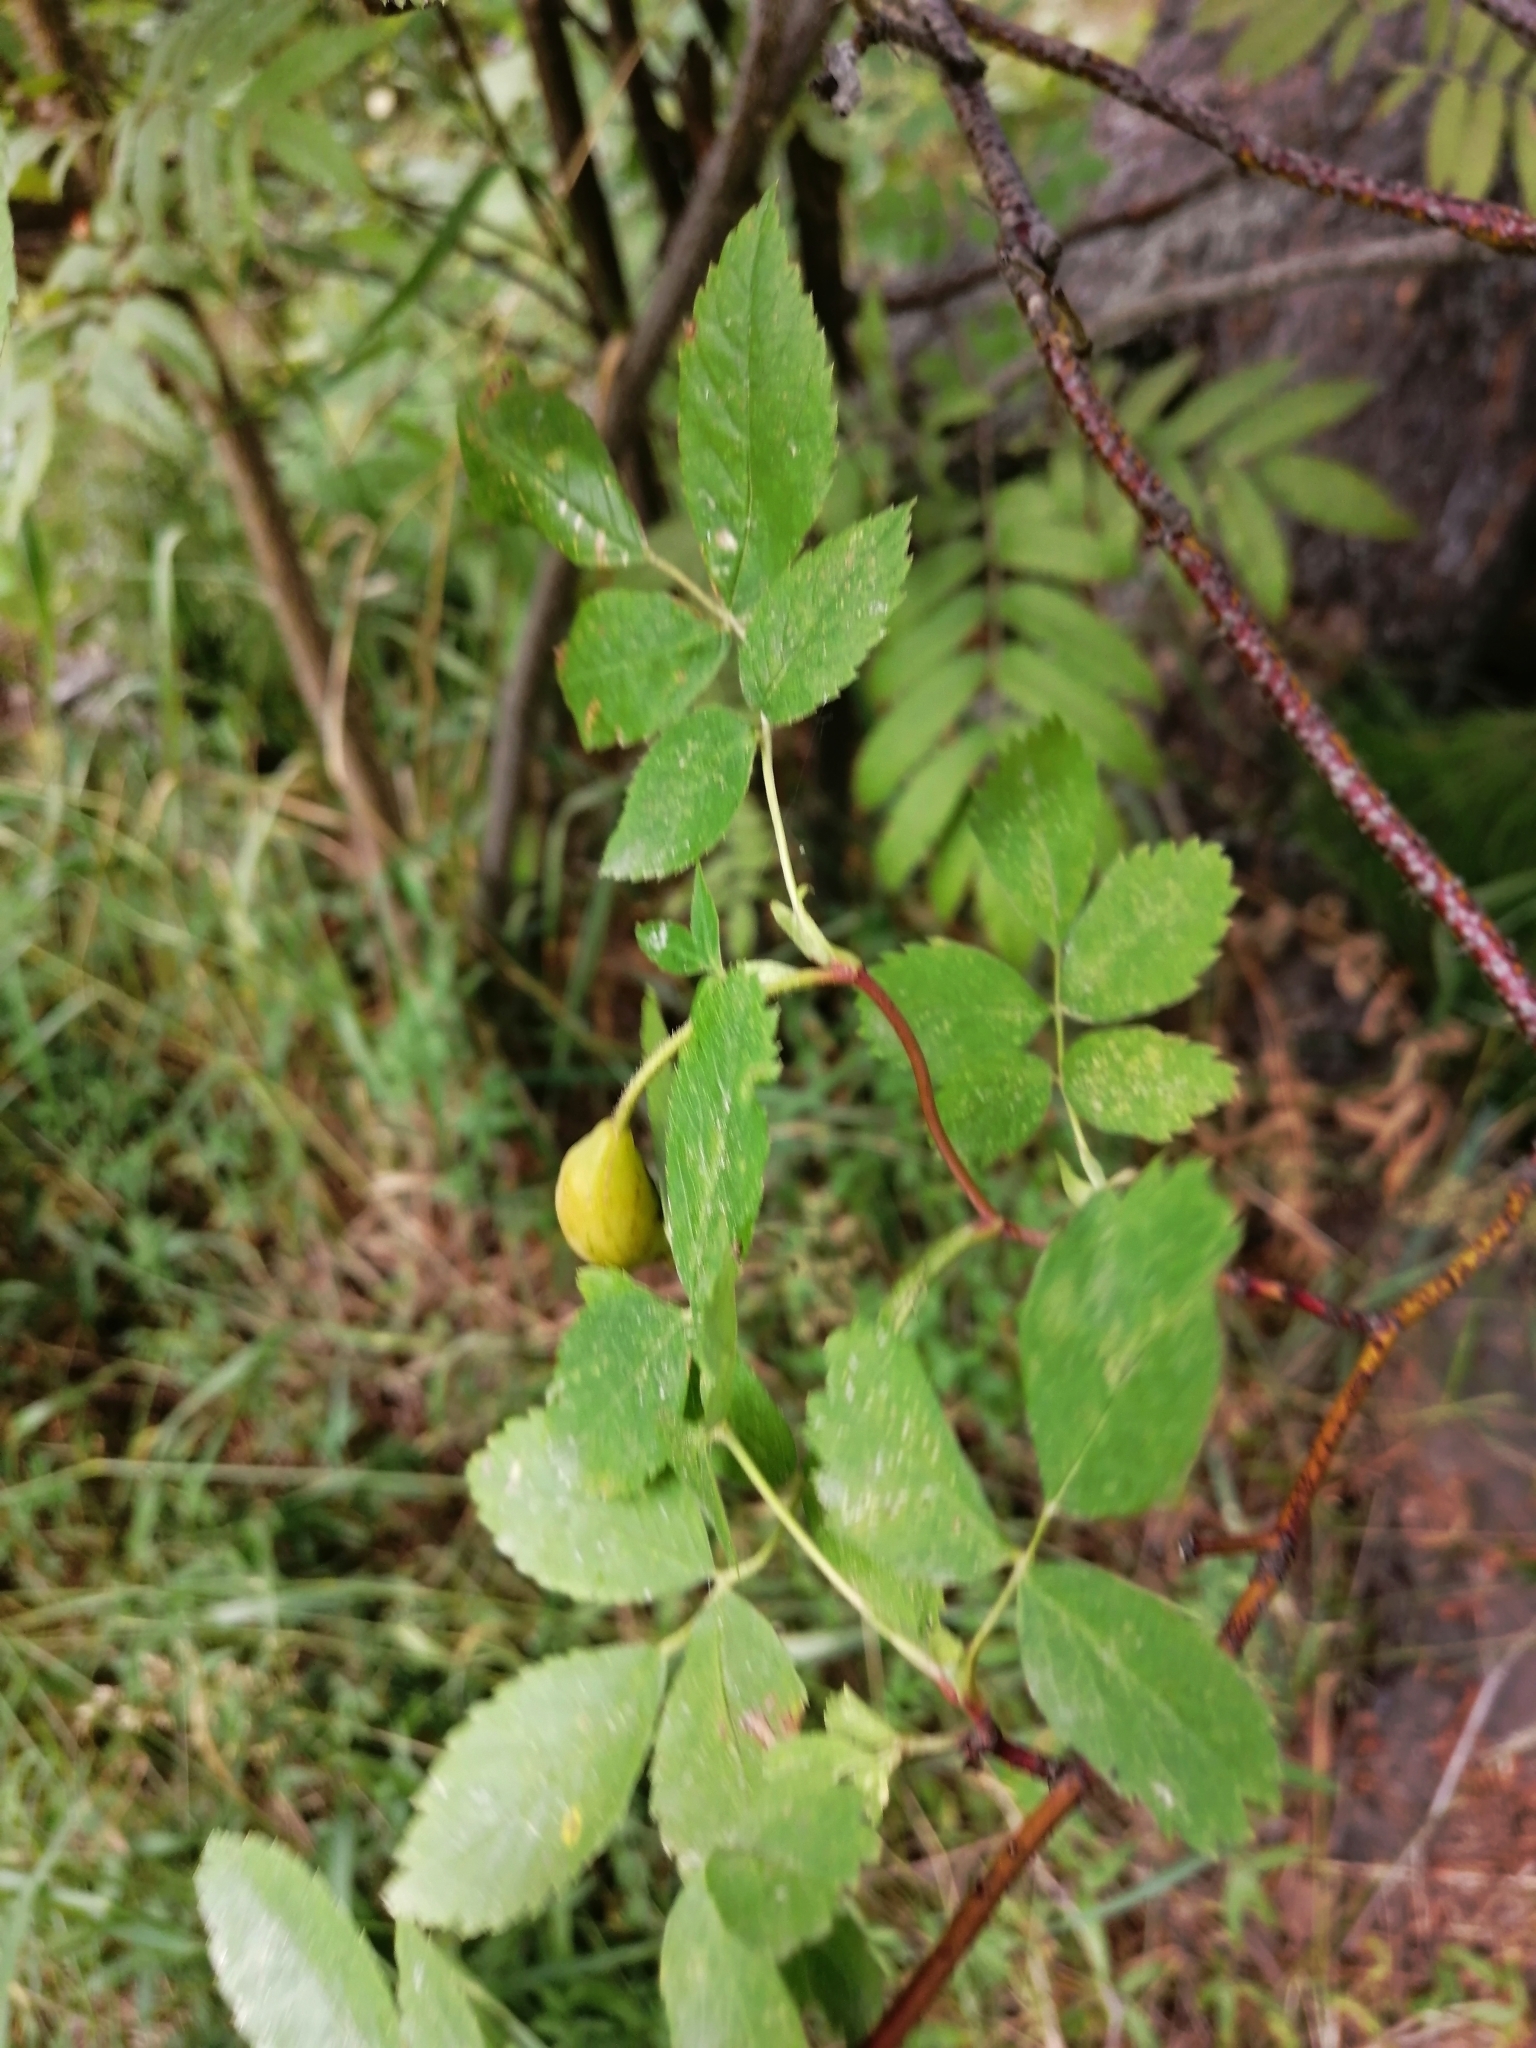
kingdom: Plantae
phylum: Tracheophyta
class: Magnoliopsida
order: Rosales
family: Rosaceae
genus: Rosa
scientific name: Rosa acicularis
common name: Prickly rose
